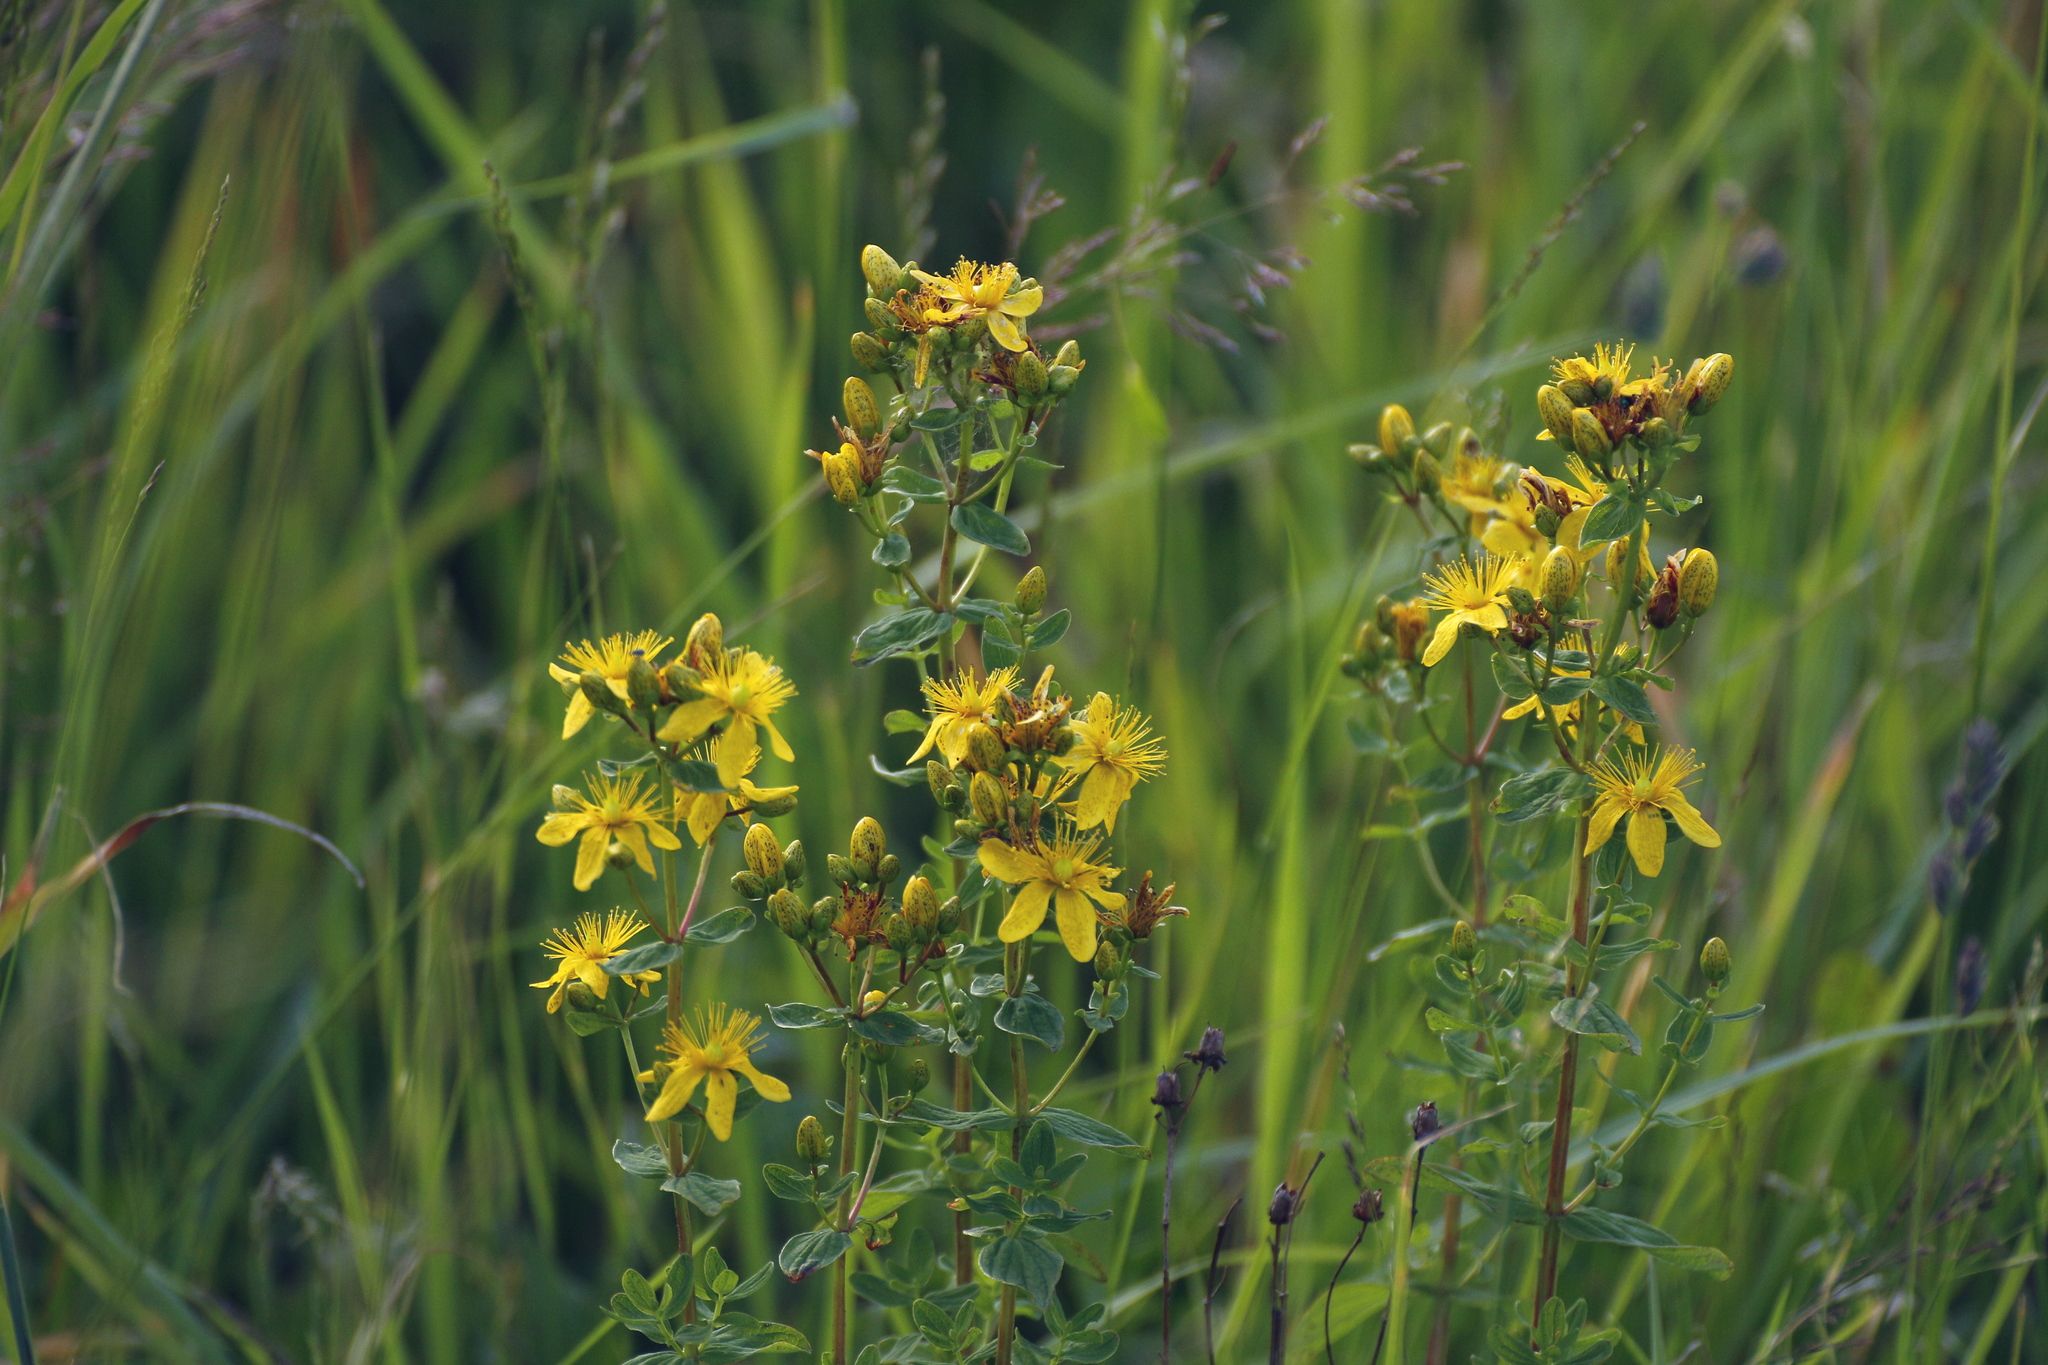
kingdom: Plantae
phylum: Tracheophyta
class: Magnoliopsida
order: Malpighiales
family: Hypericaceae
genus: Hypericum
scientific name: Hypericum maculatum
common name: Imperforate st. john's-wort
